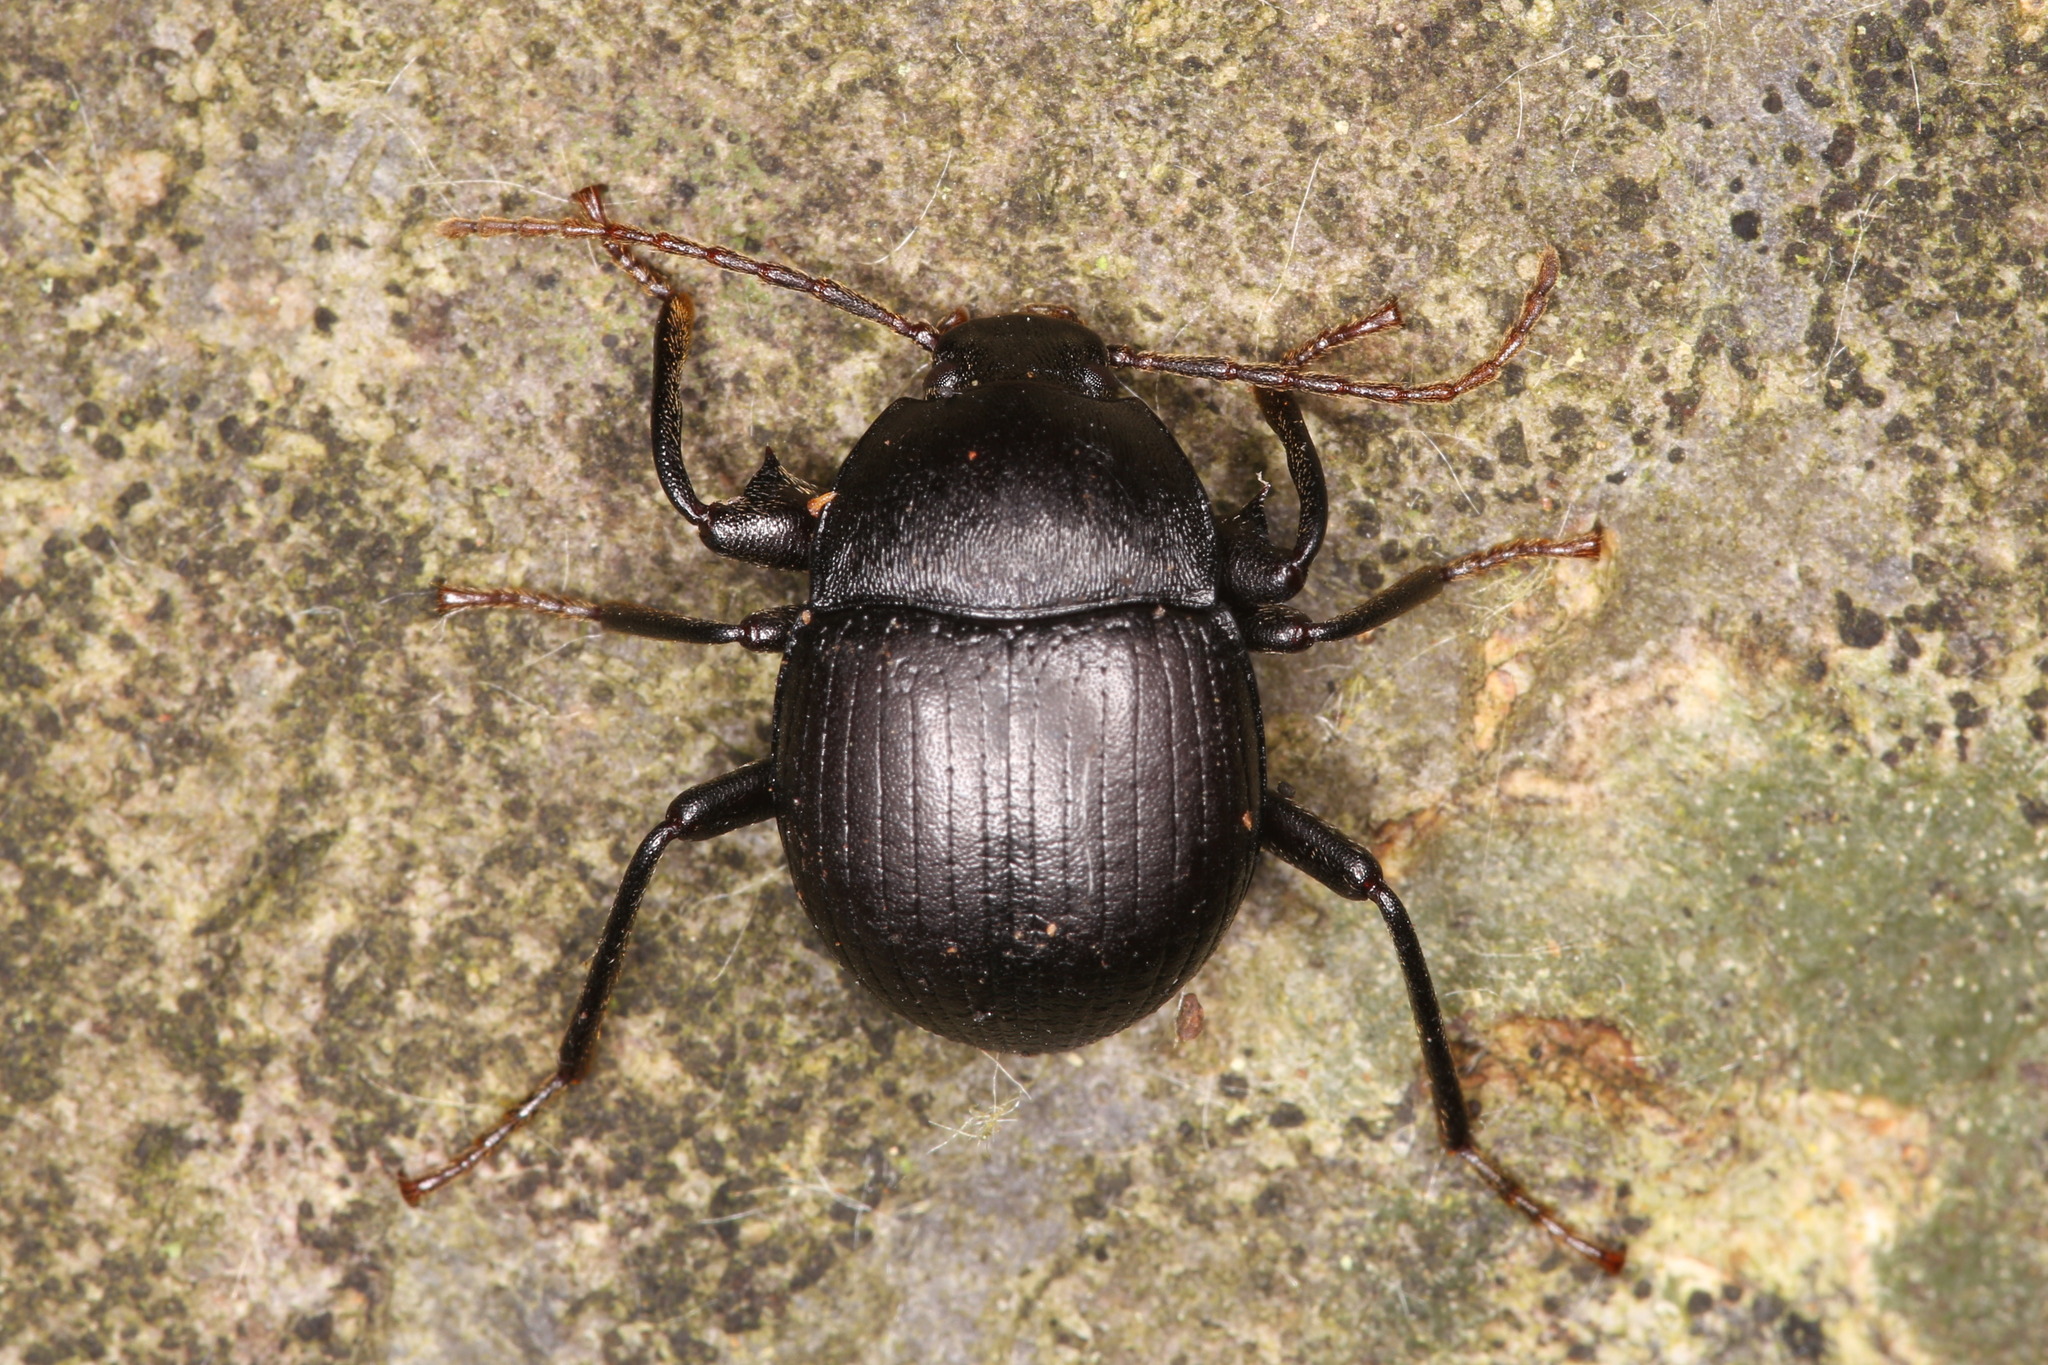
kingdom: Animalia
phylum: Arthropoda
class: Insecta
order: Coleoptera
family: Tenebrionidae
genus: Accanthopus
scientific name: Accanthopus velikensis
